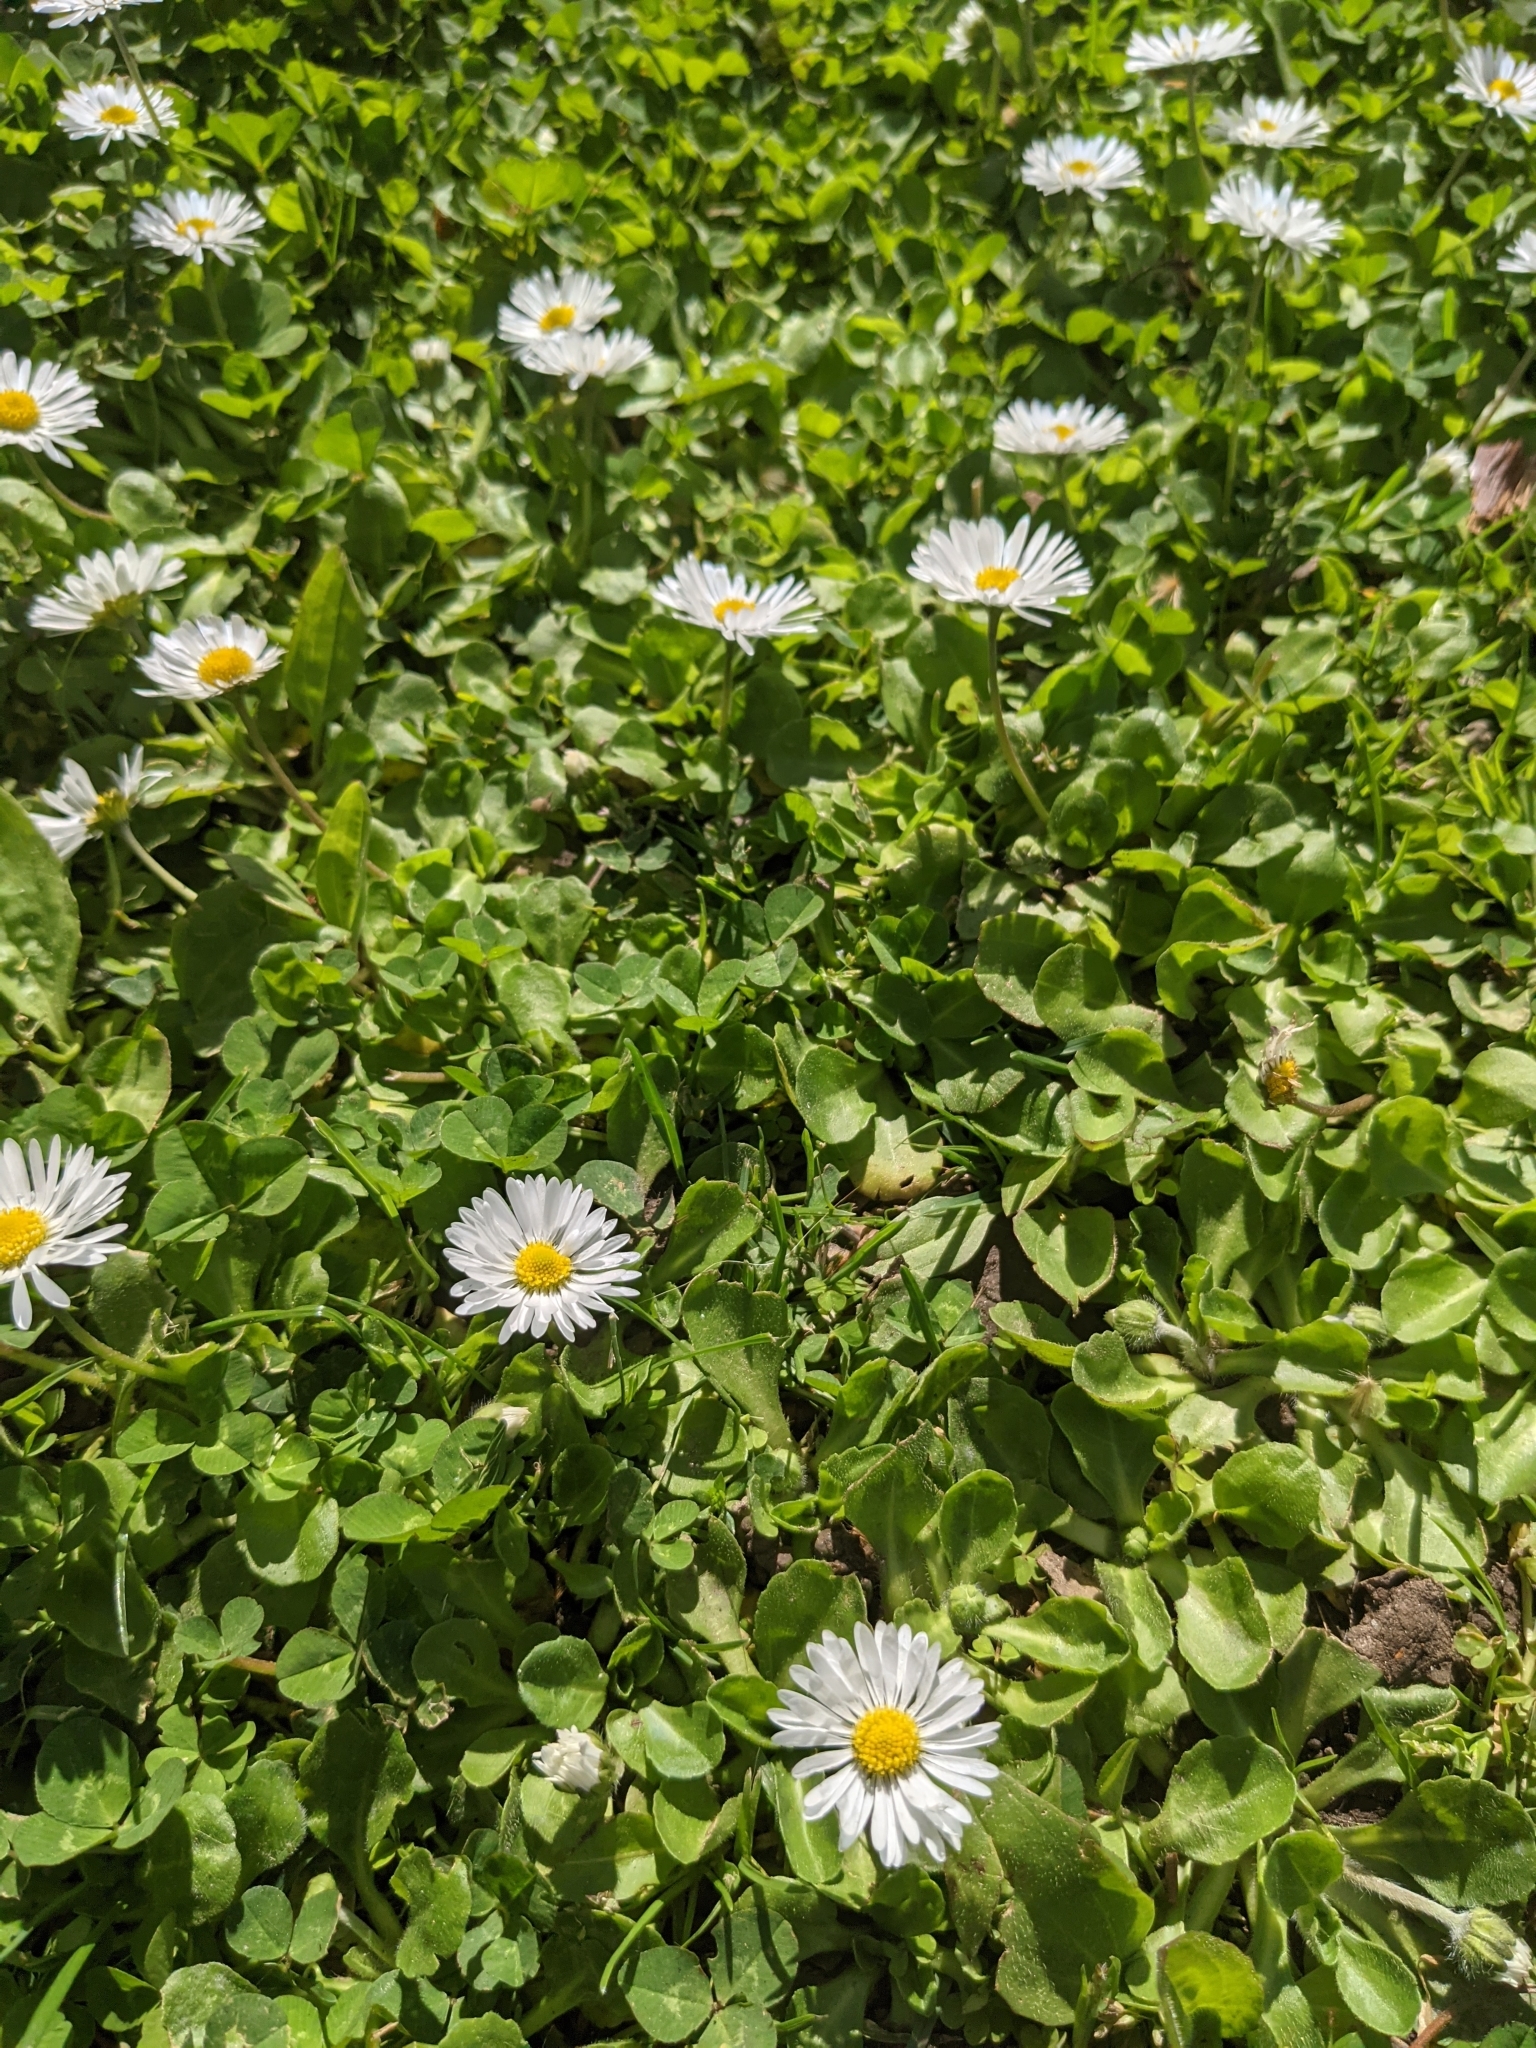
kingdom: Plantae
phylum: Tracheophyta
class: Magnoliopsida
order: Asterales
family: Asteraceae
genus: Bellis
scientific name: Bellis perennis
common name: Lawndaisy
